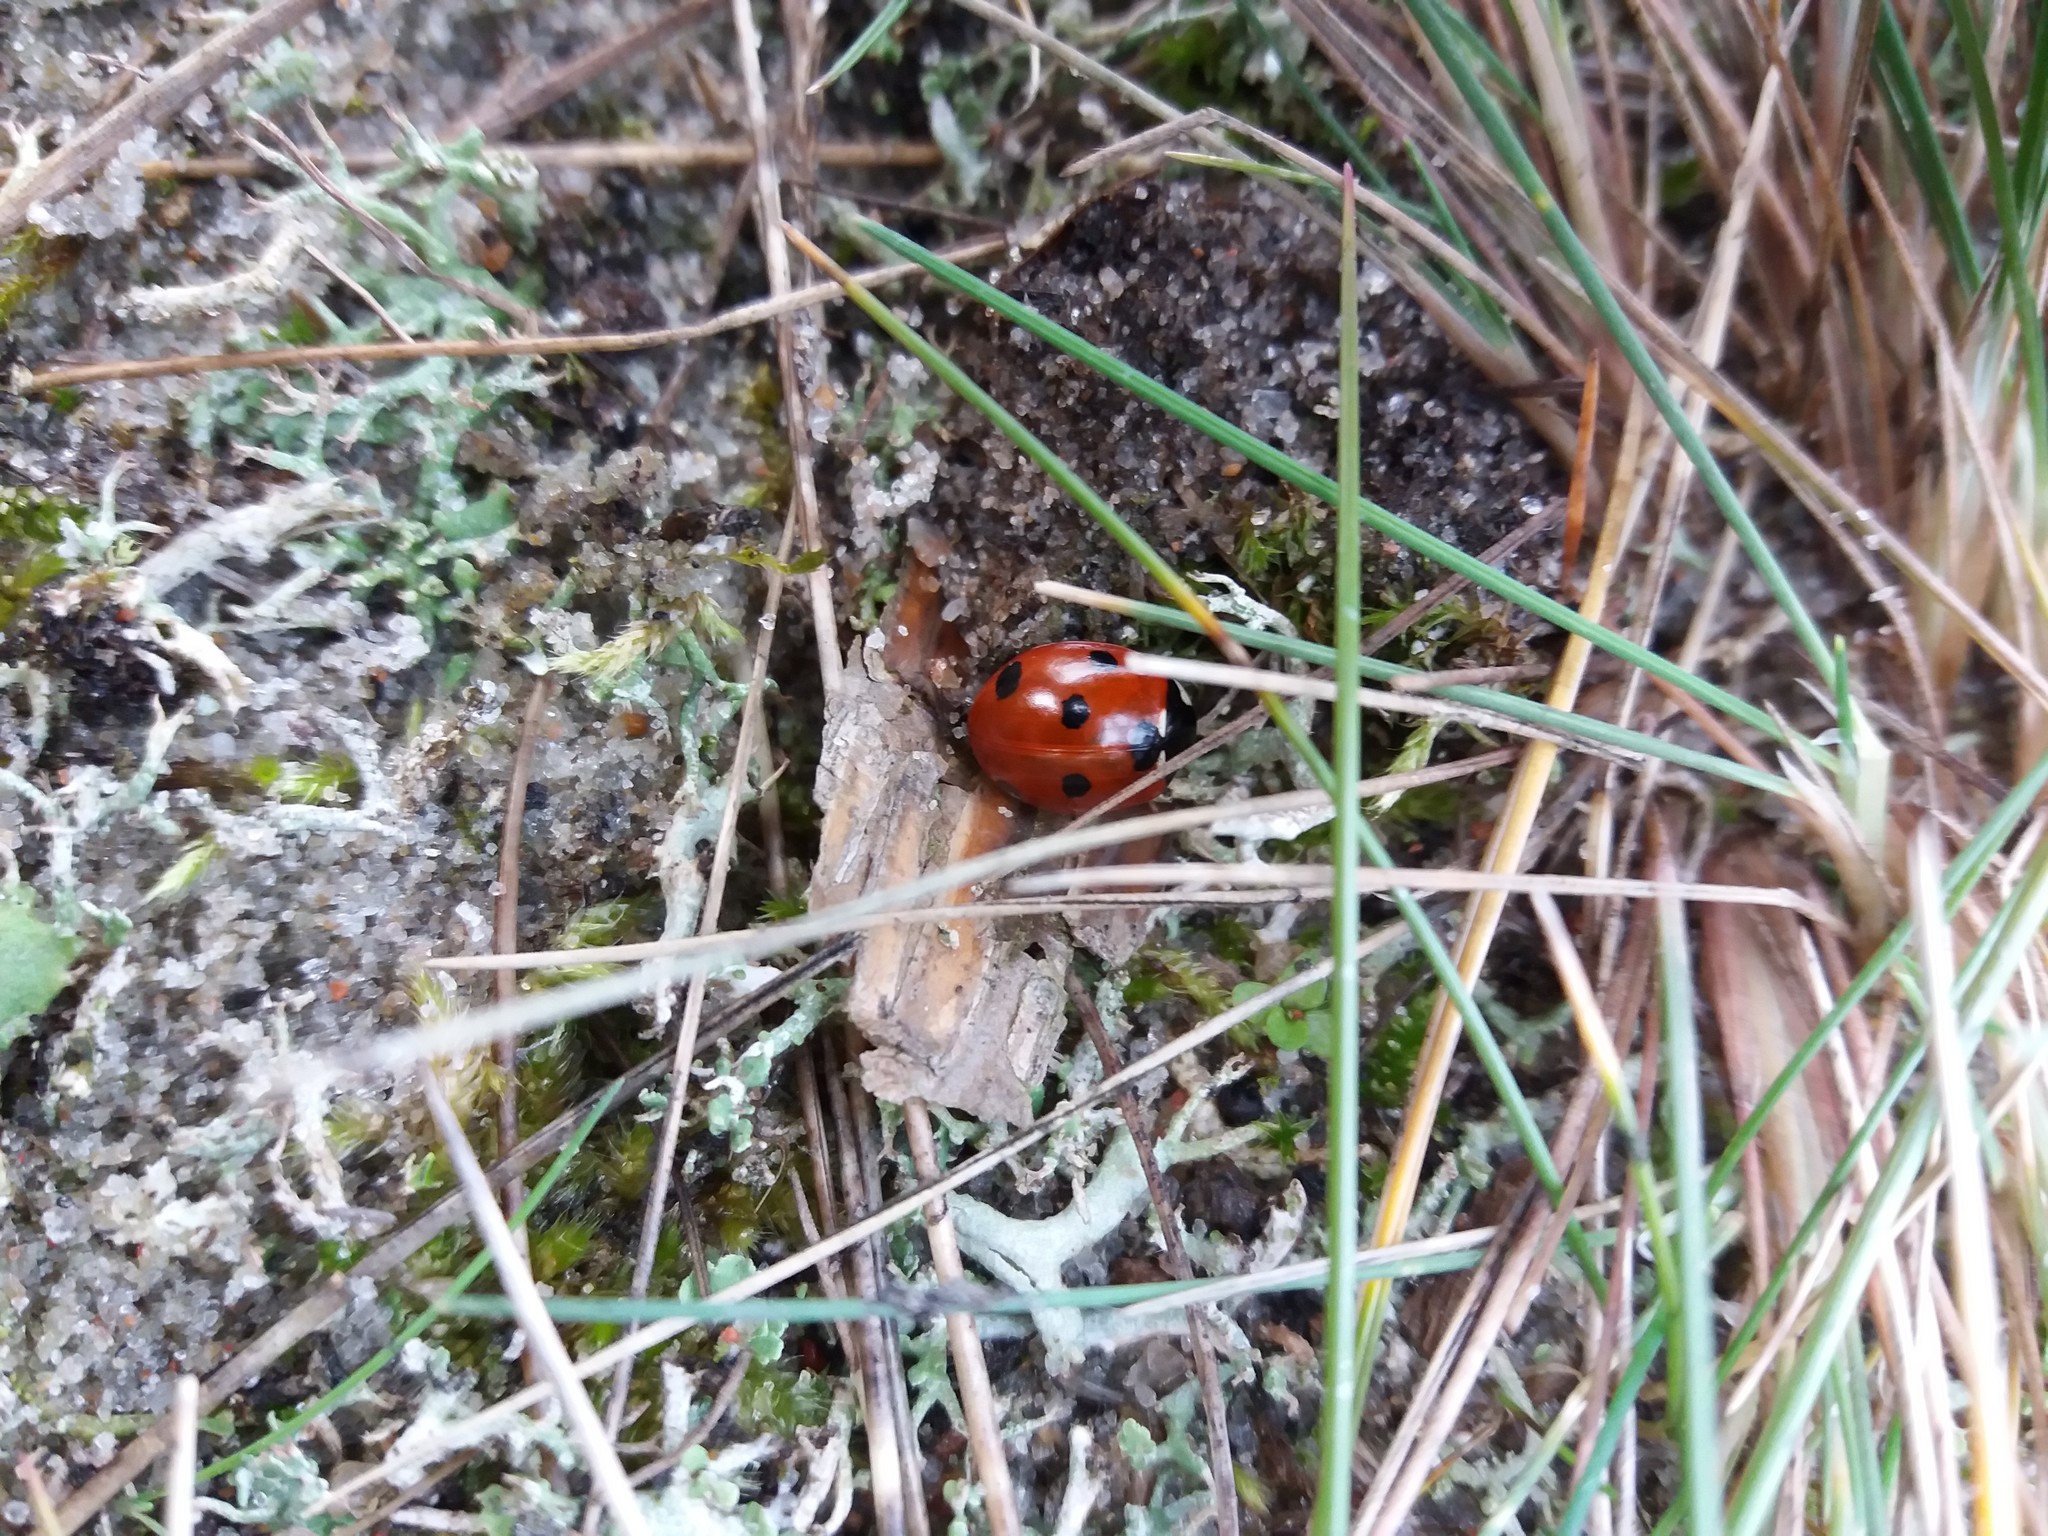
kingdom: Animalia
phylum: Arthropoda
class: Insecta
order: Coleoptera
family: Coccinellidae
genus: Coccinella
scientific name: Coccinella septempunctata
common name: Sevenspotted lady beetle
